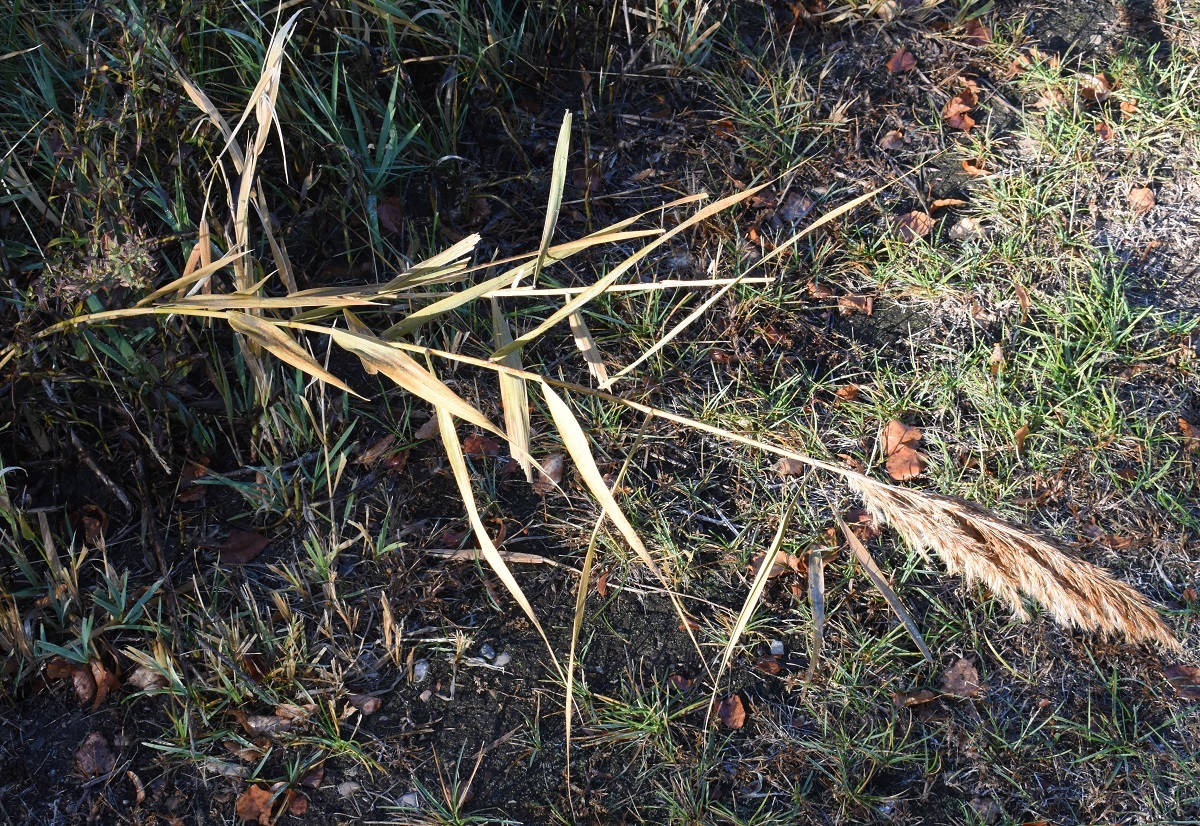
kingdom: Plantae
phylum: Tracheophyta
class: Liliopsida
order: Poales
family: Poaceae
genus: Phragmites
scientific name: Phragmites australis
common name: Common reed
